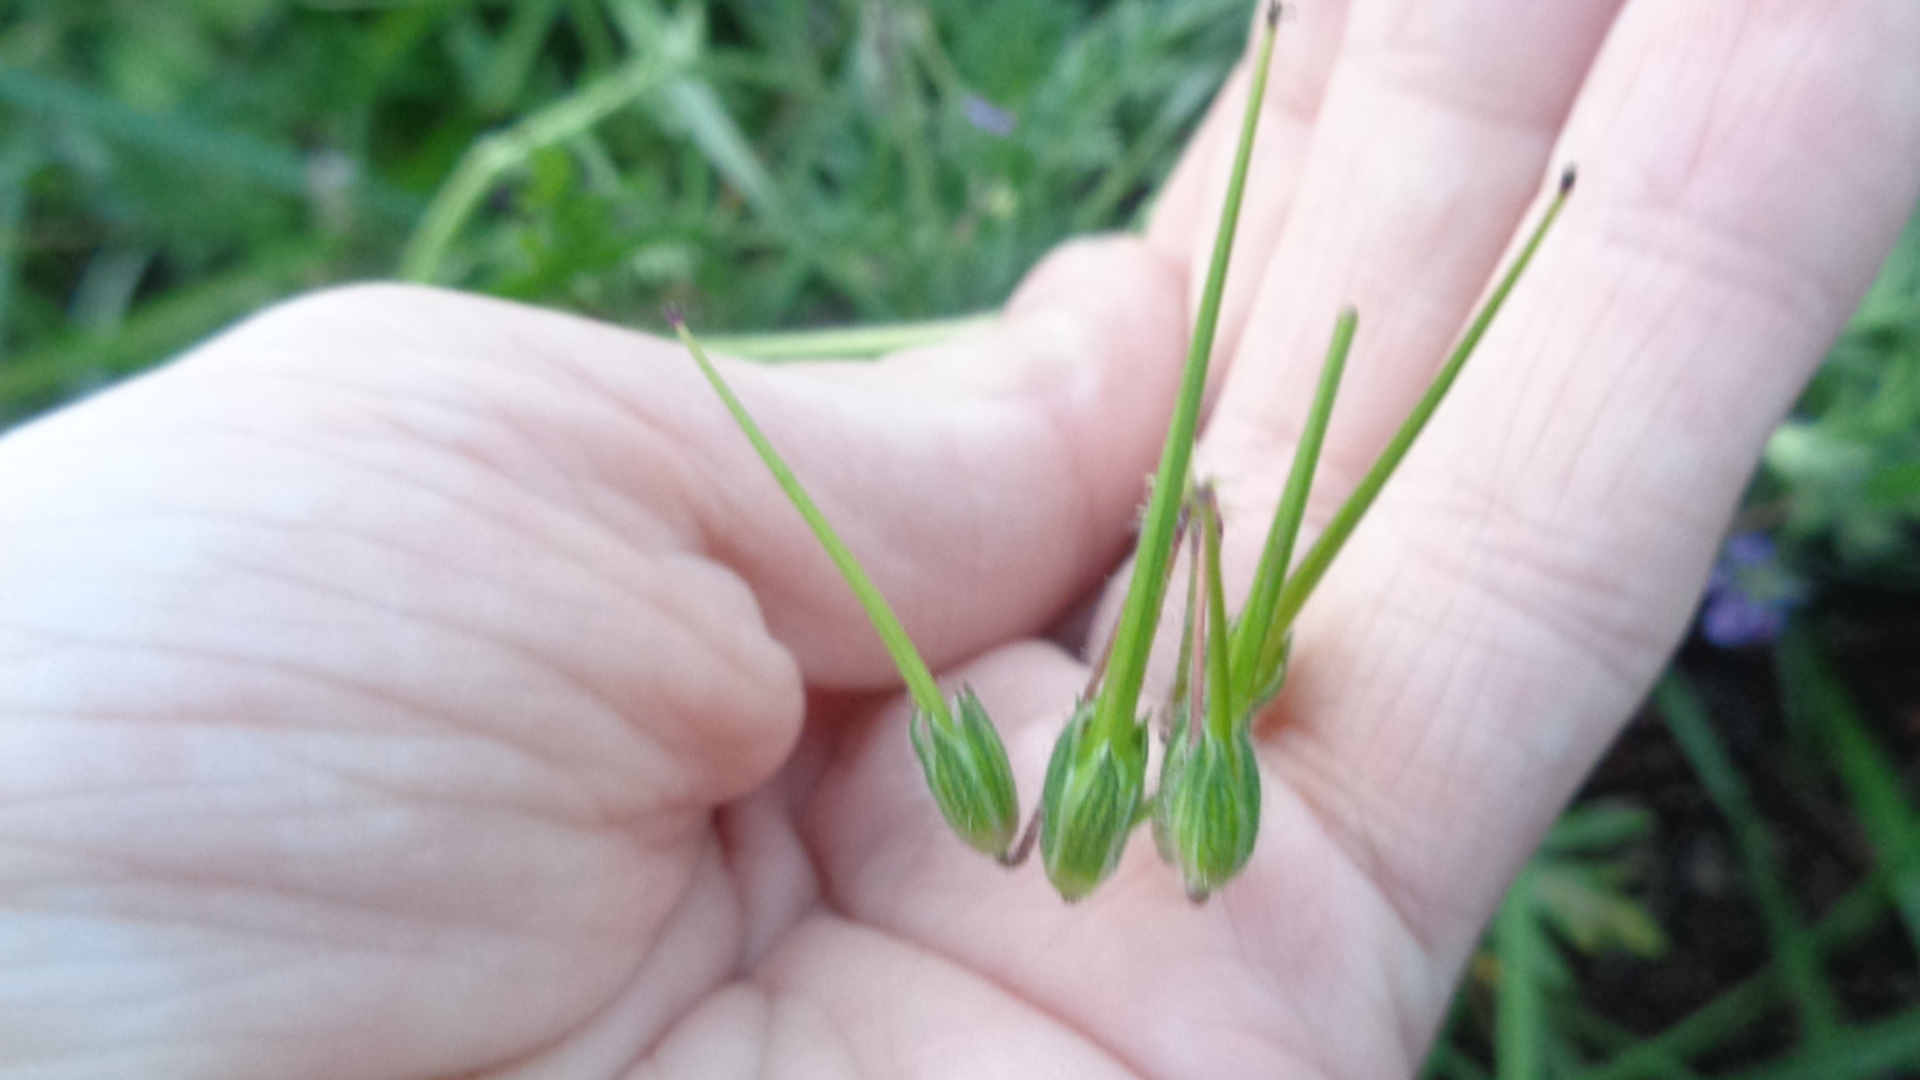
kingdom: Plantae
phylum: Tracheophyta
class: Magnoliopsida
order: Geraniales
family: Geraniaceae
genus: Erodium
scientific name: Erodium cicutarium
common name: Common stork's-bill
